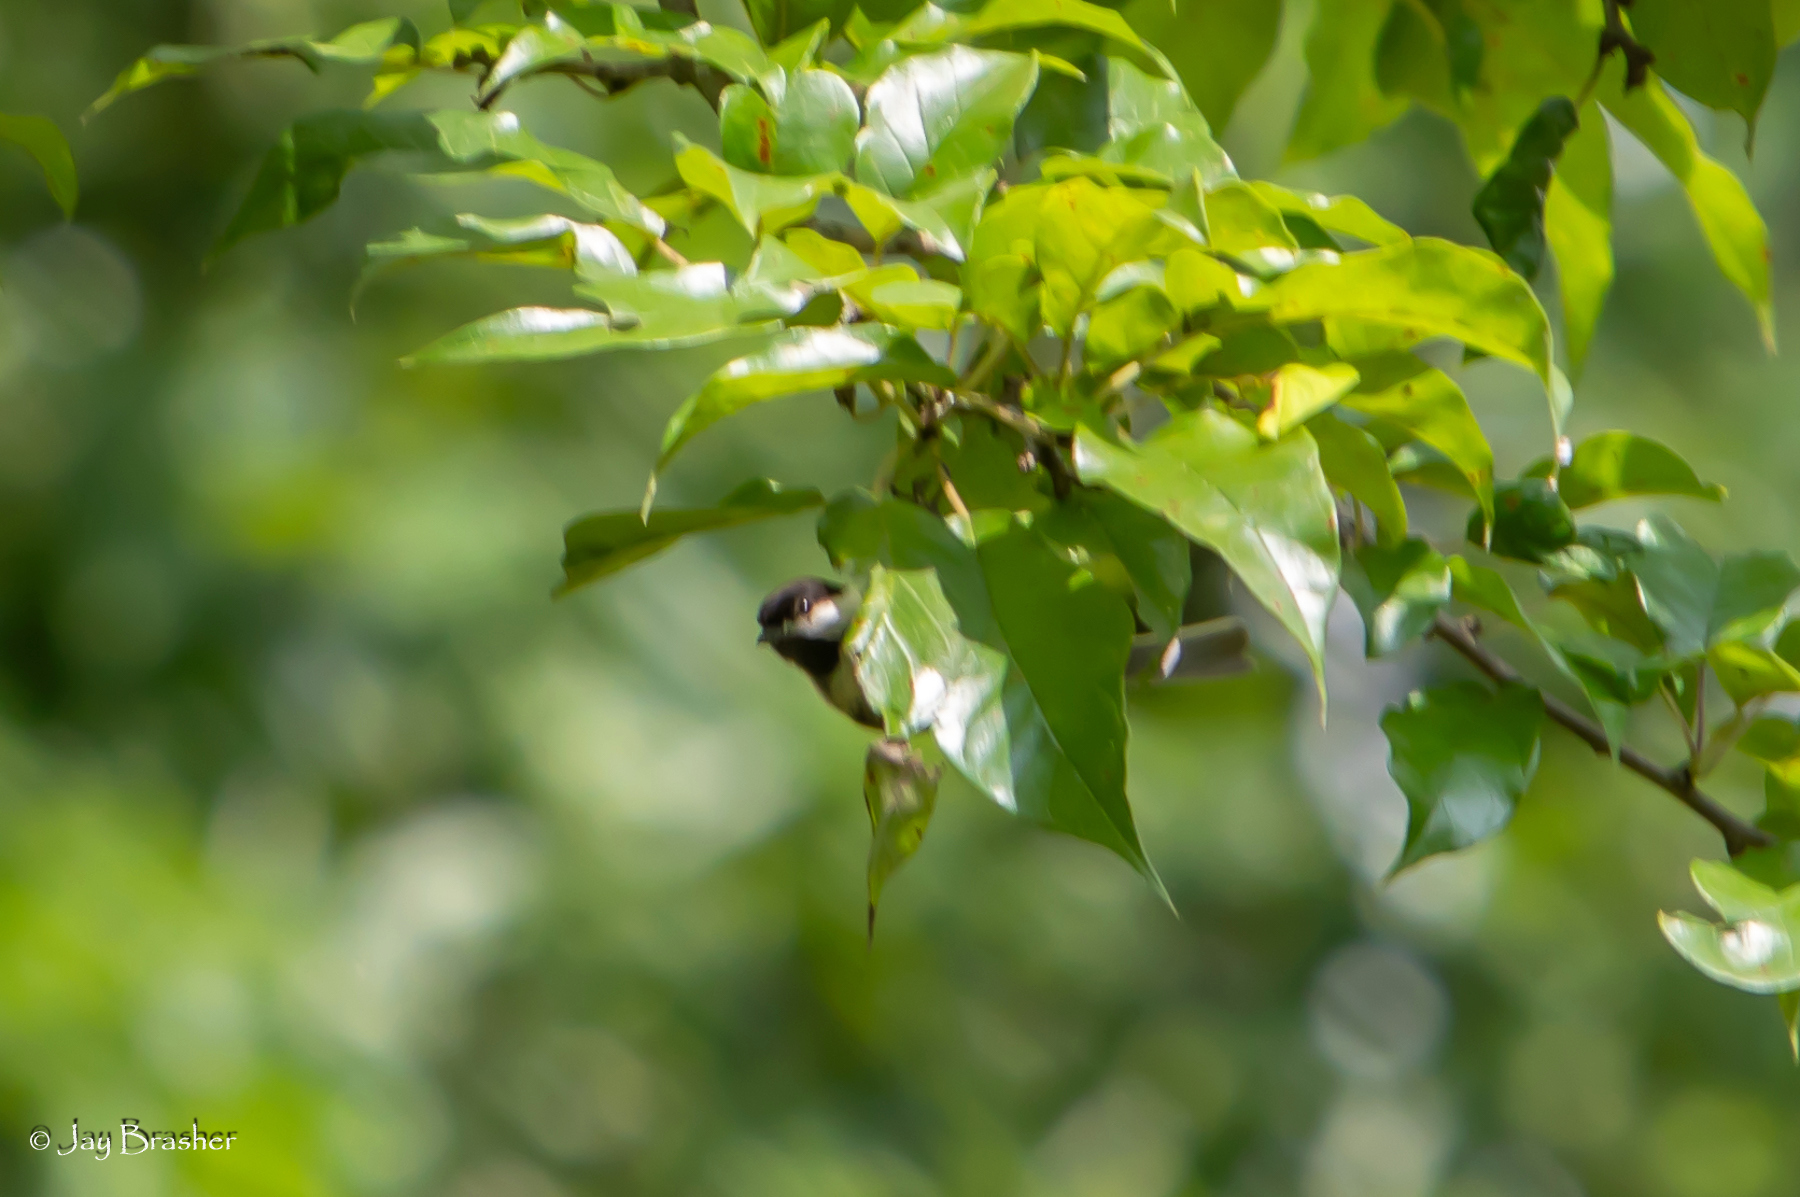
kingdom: Animalia
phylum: Chordata
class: Aves
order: Passeriformes
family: Paridae
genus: Poecile
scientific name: Poecile carolinensis
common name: Carolina chickadee
